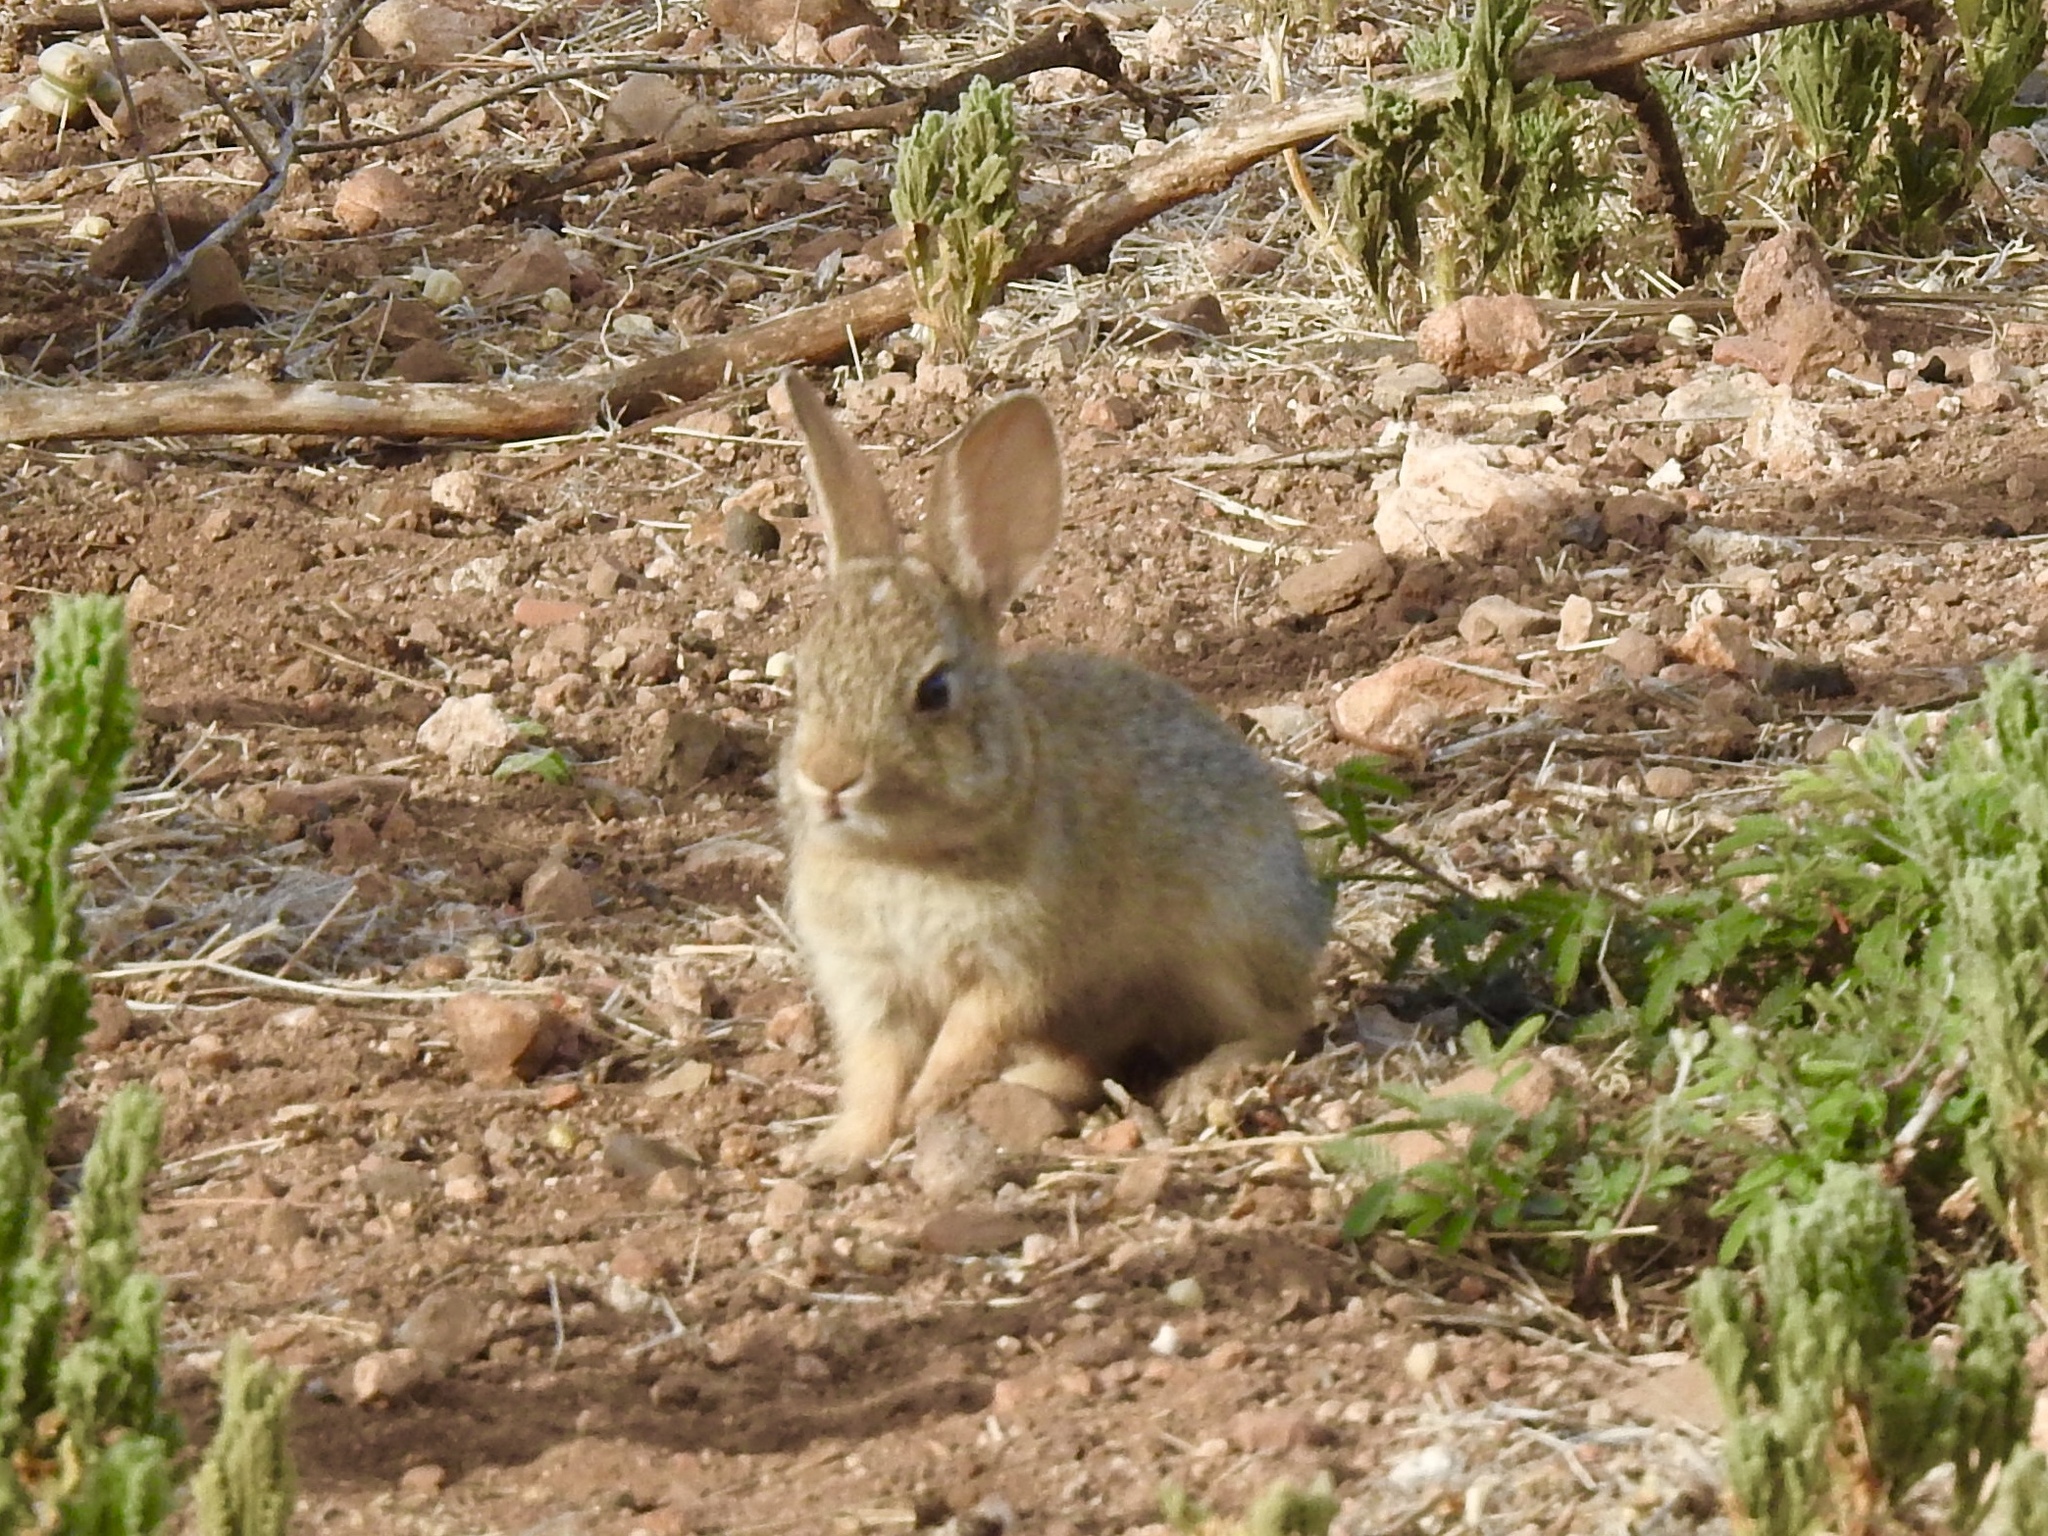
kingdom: Animalia
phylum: Chordata
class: Mammalia
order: Lagomorpha
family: Leporidae
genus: Sylvilagus
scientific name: Sylvilagus audubonii
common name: Desert cottontail
